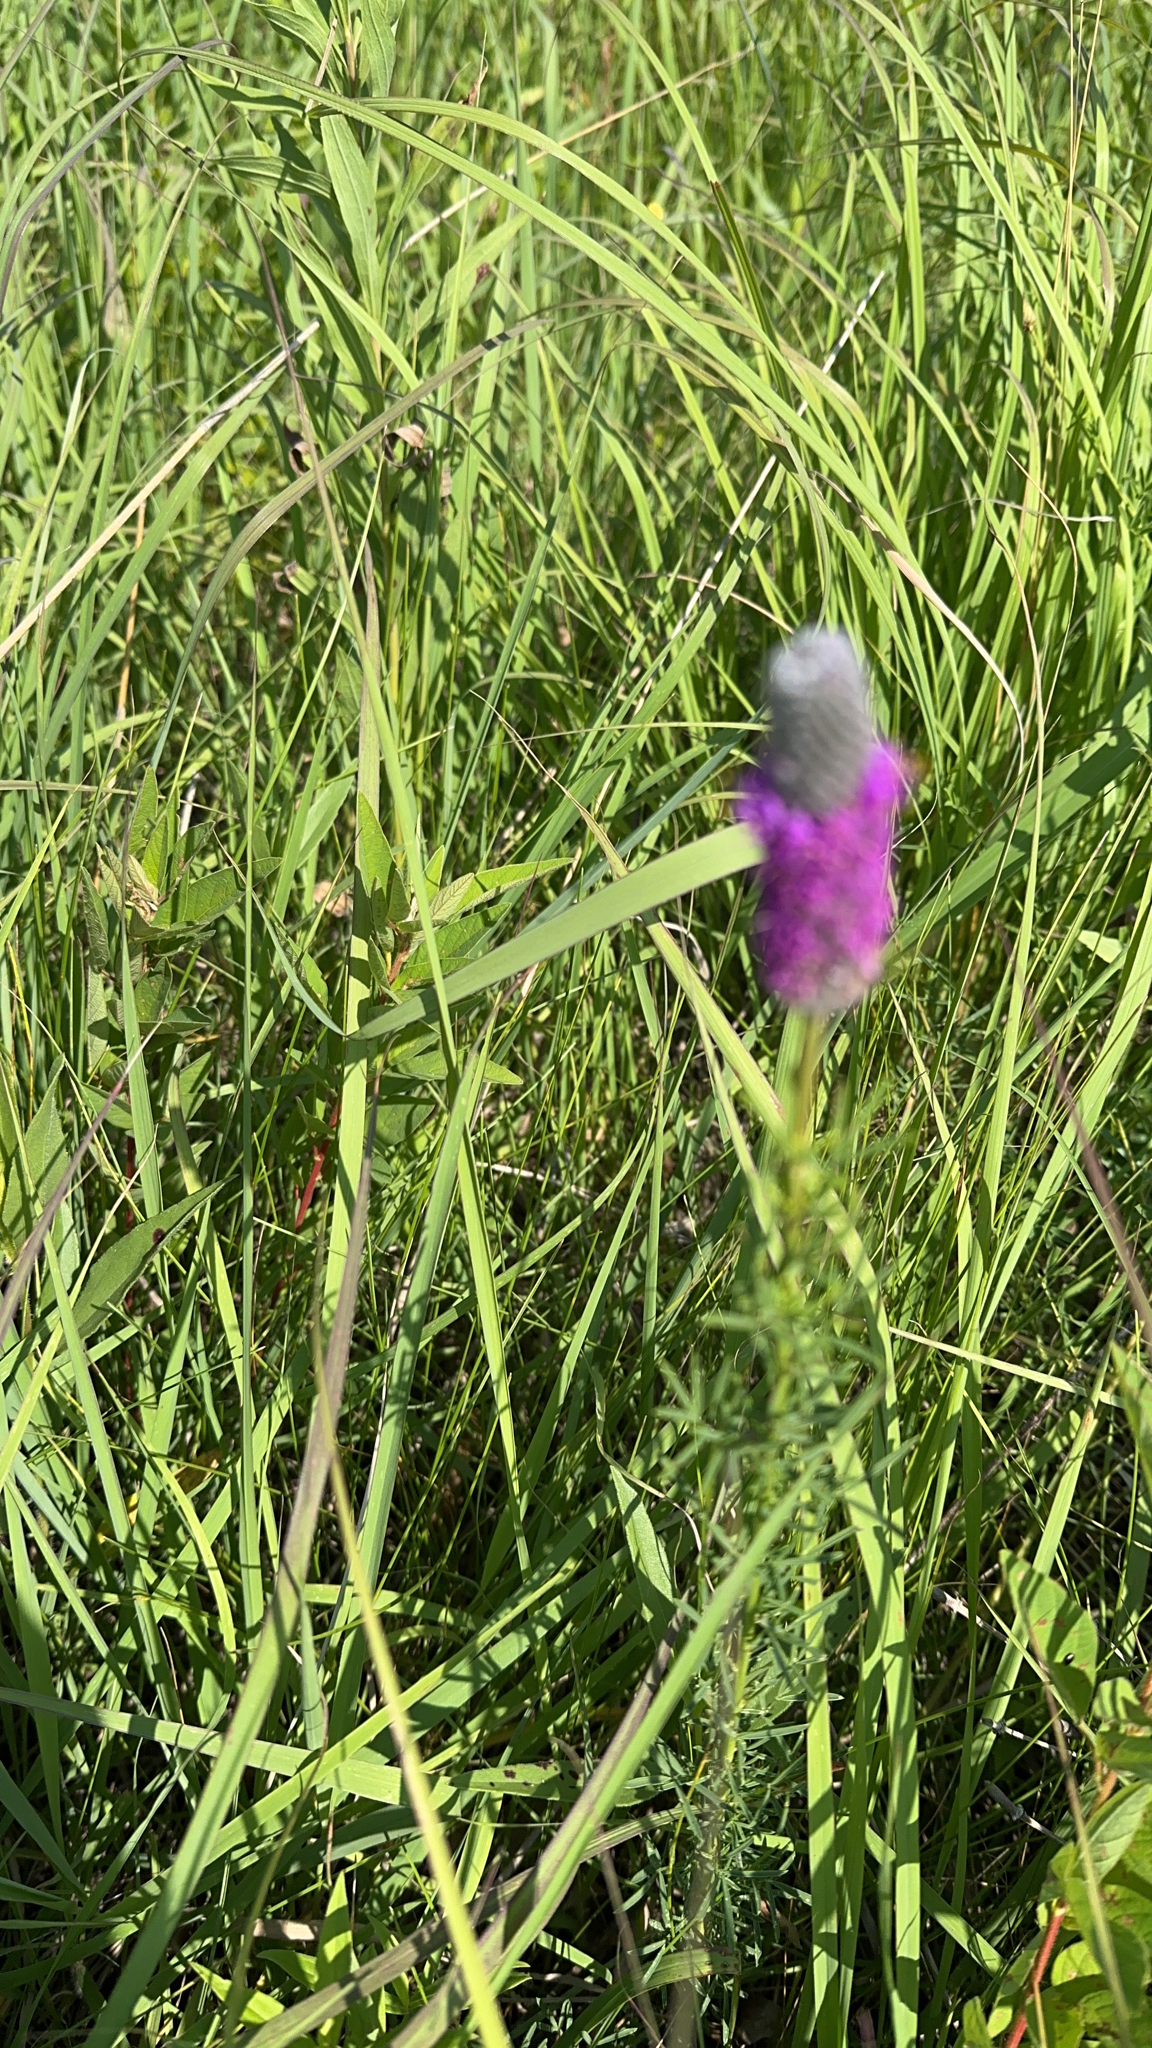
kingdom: Plantae
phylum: Tracheophyta
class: Magnoliopsida
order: Fabales
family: Fabaceae
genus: Dalea
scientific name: Dalea purpurea
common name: Purple prairie-clover
